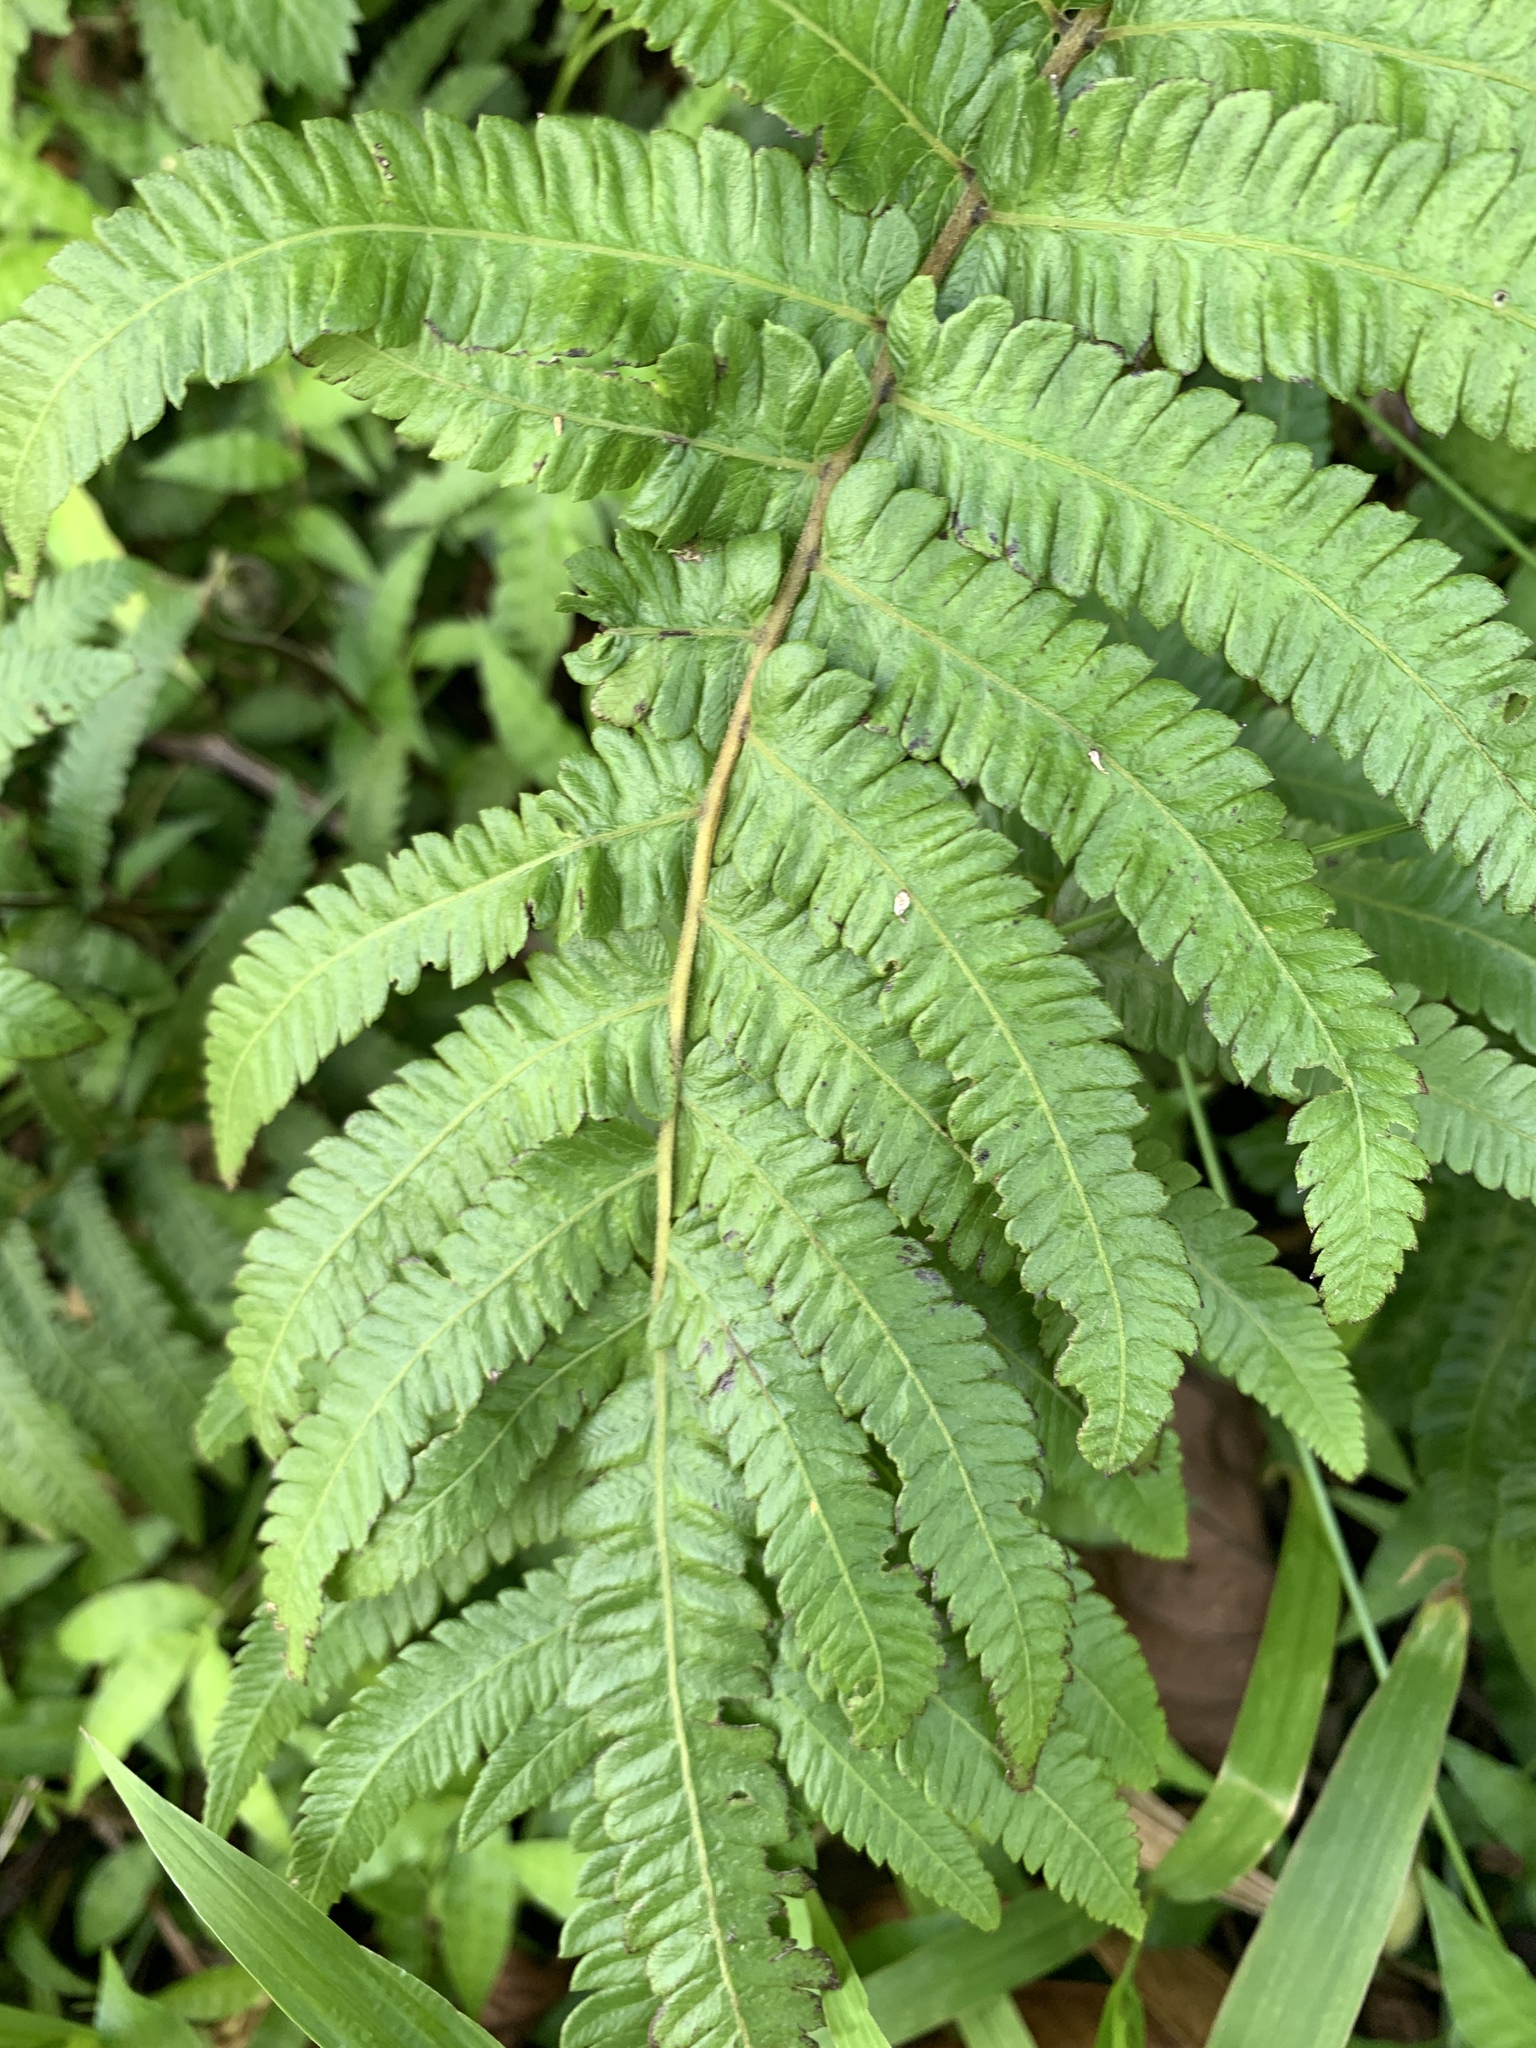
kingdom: Plantae
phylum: Tracheophyta
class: Polypodiopsida
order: Polypodiales
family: Thelypteridaceae
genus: Christella
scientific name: Christella acuminata
